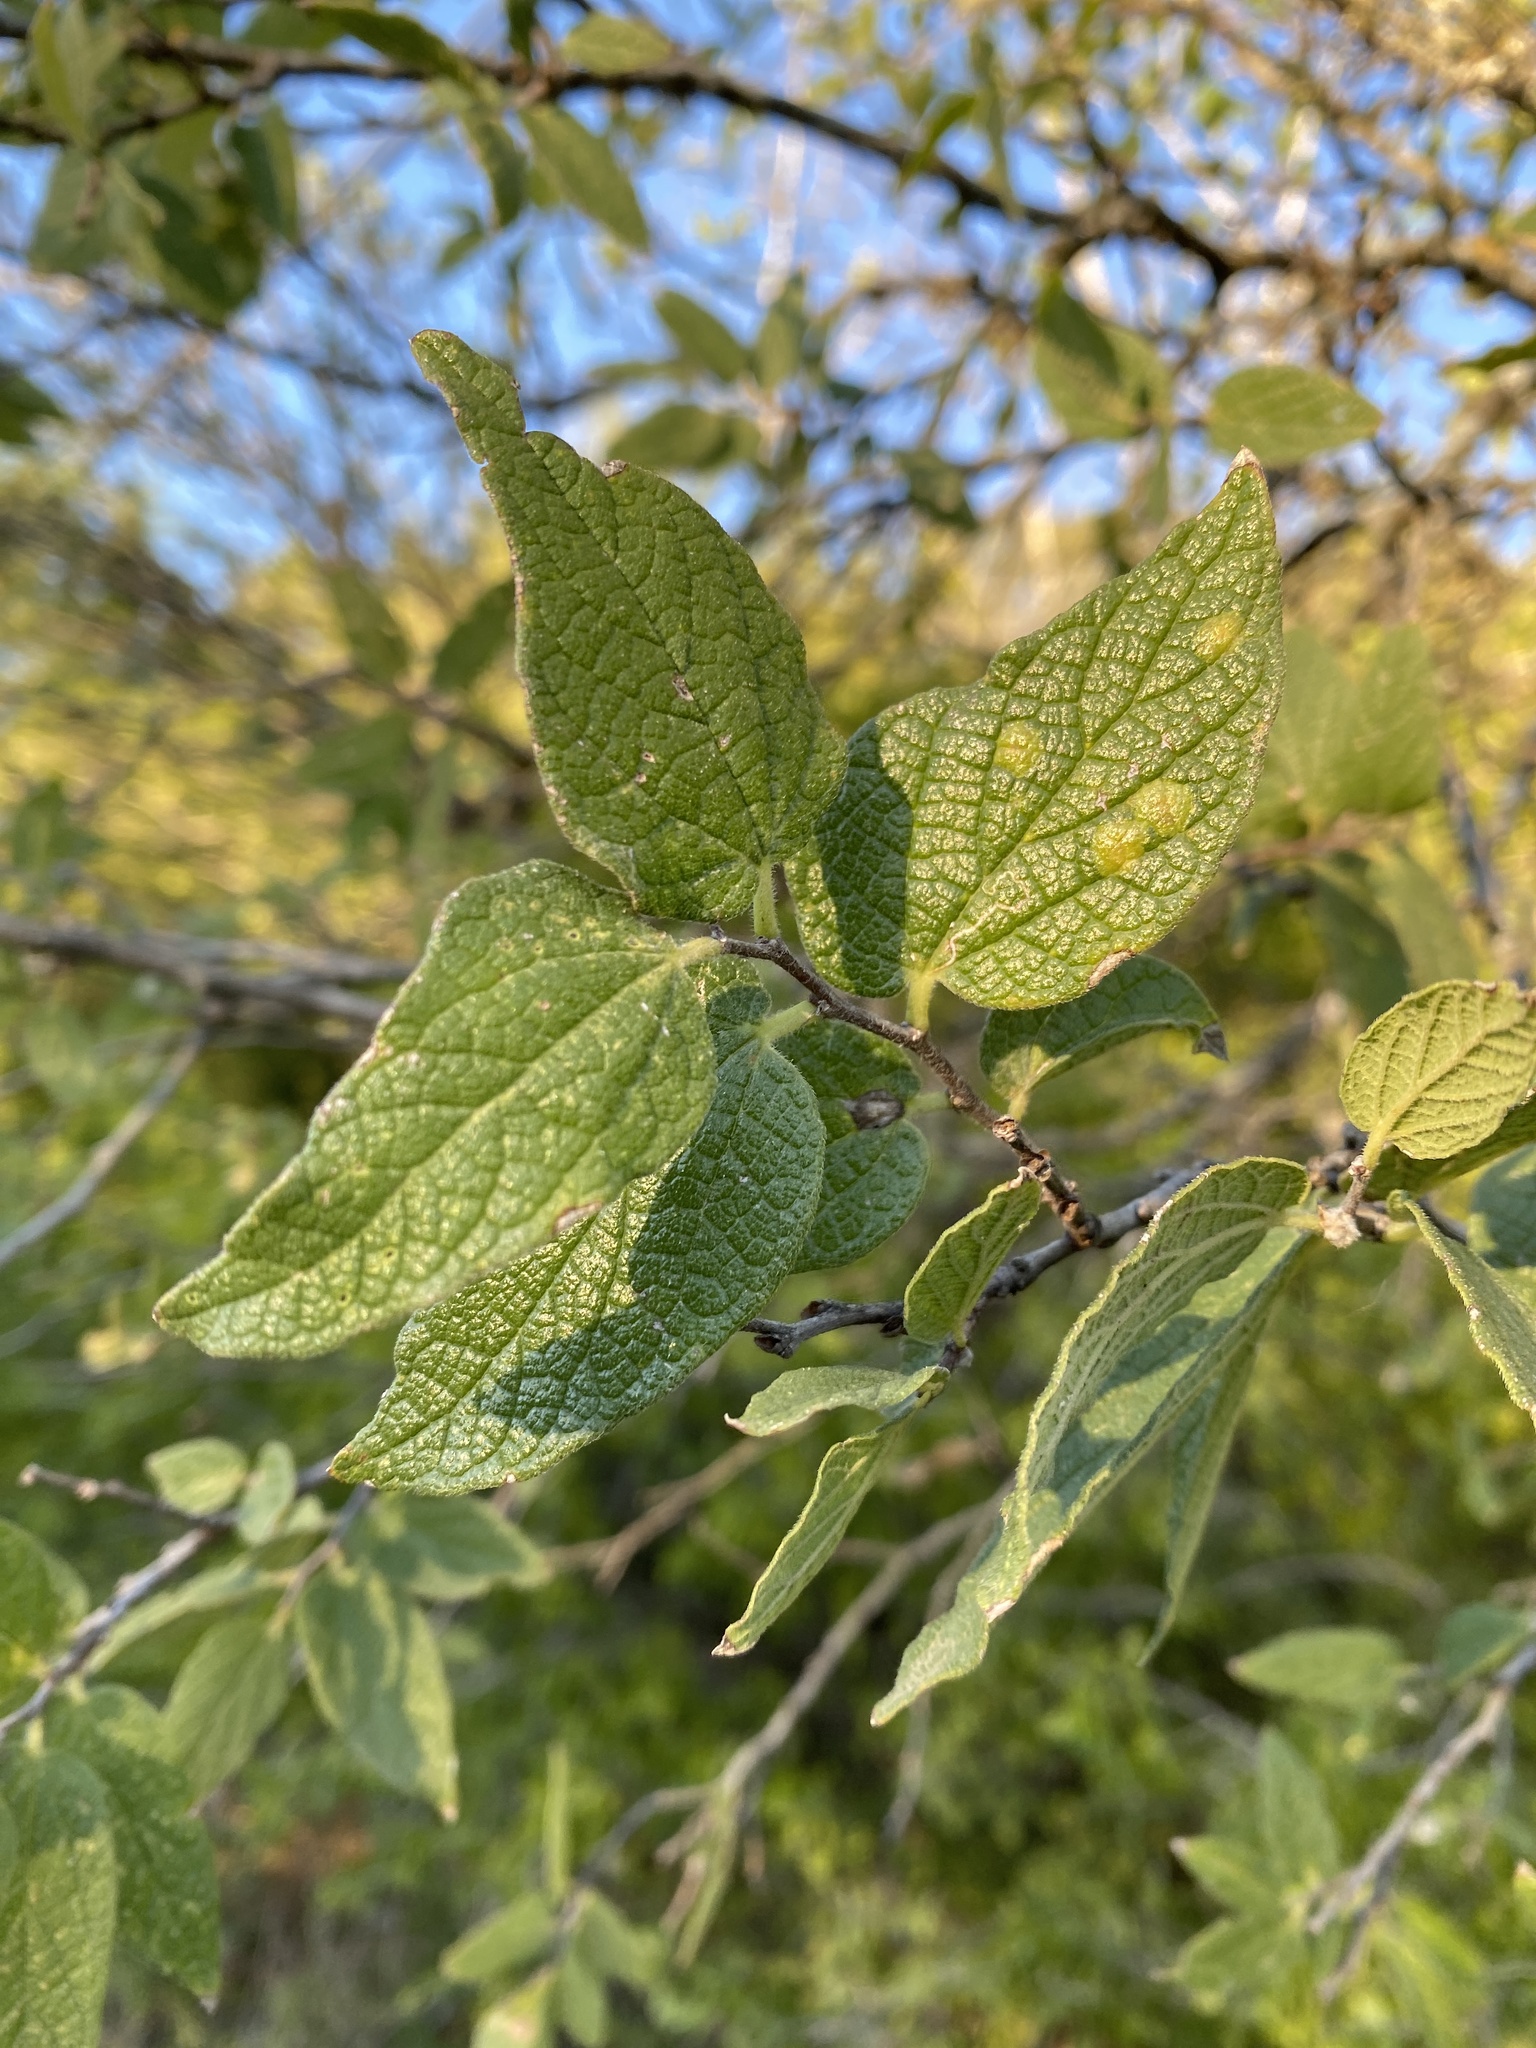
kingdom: Plantae
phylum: Tracheophyta
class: Magnoliopsida
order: Rosales
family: Cannabaceae
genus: Celtis
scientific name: Celtis reticulata
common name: Netleaf hackberry
